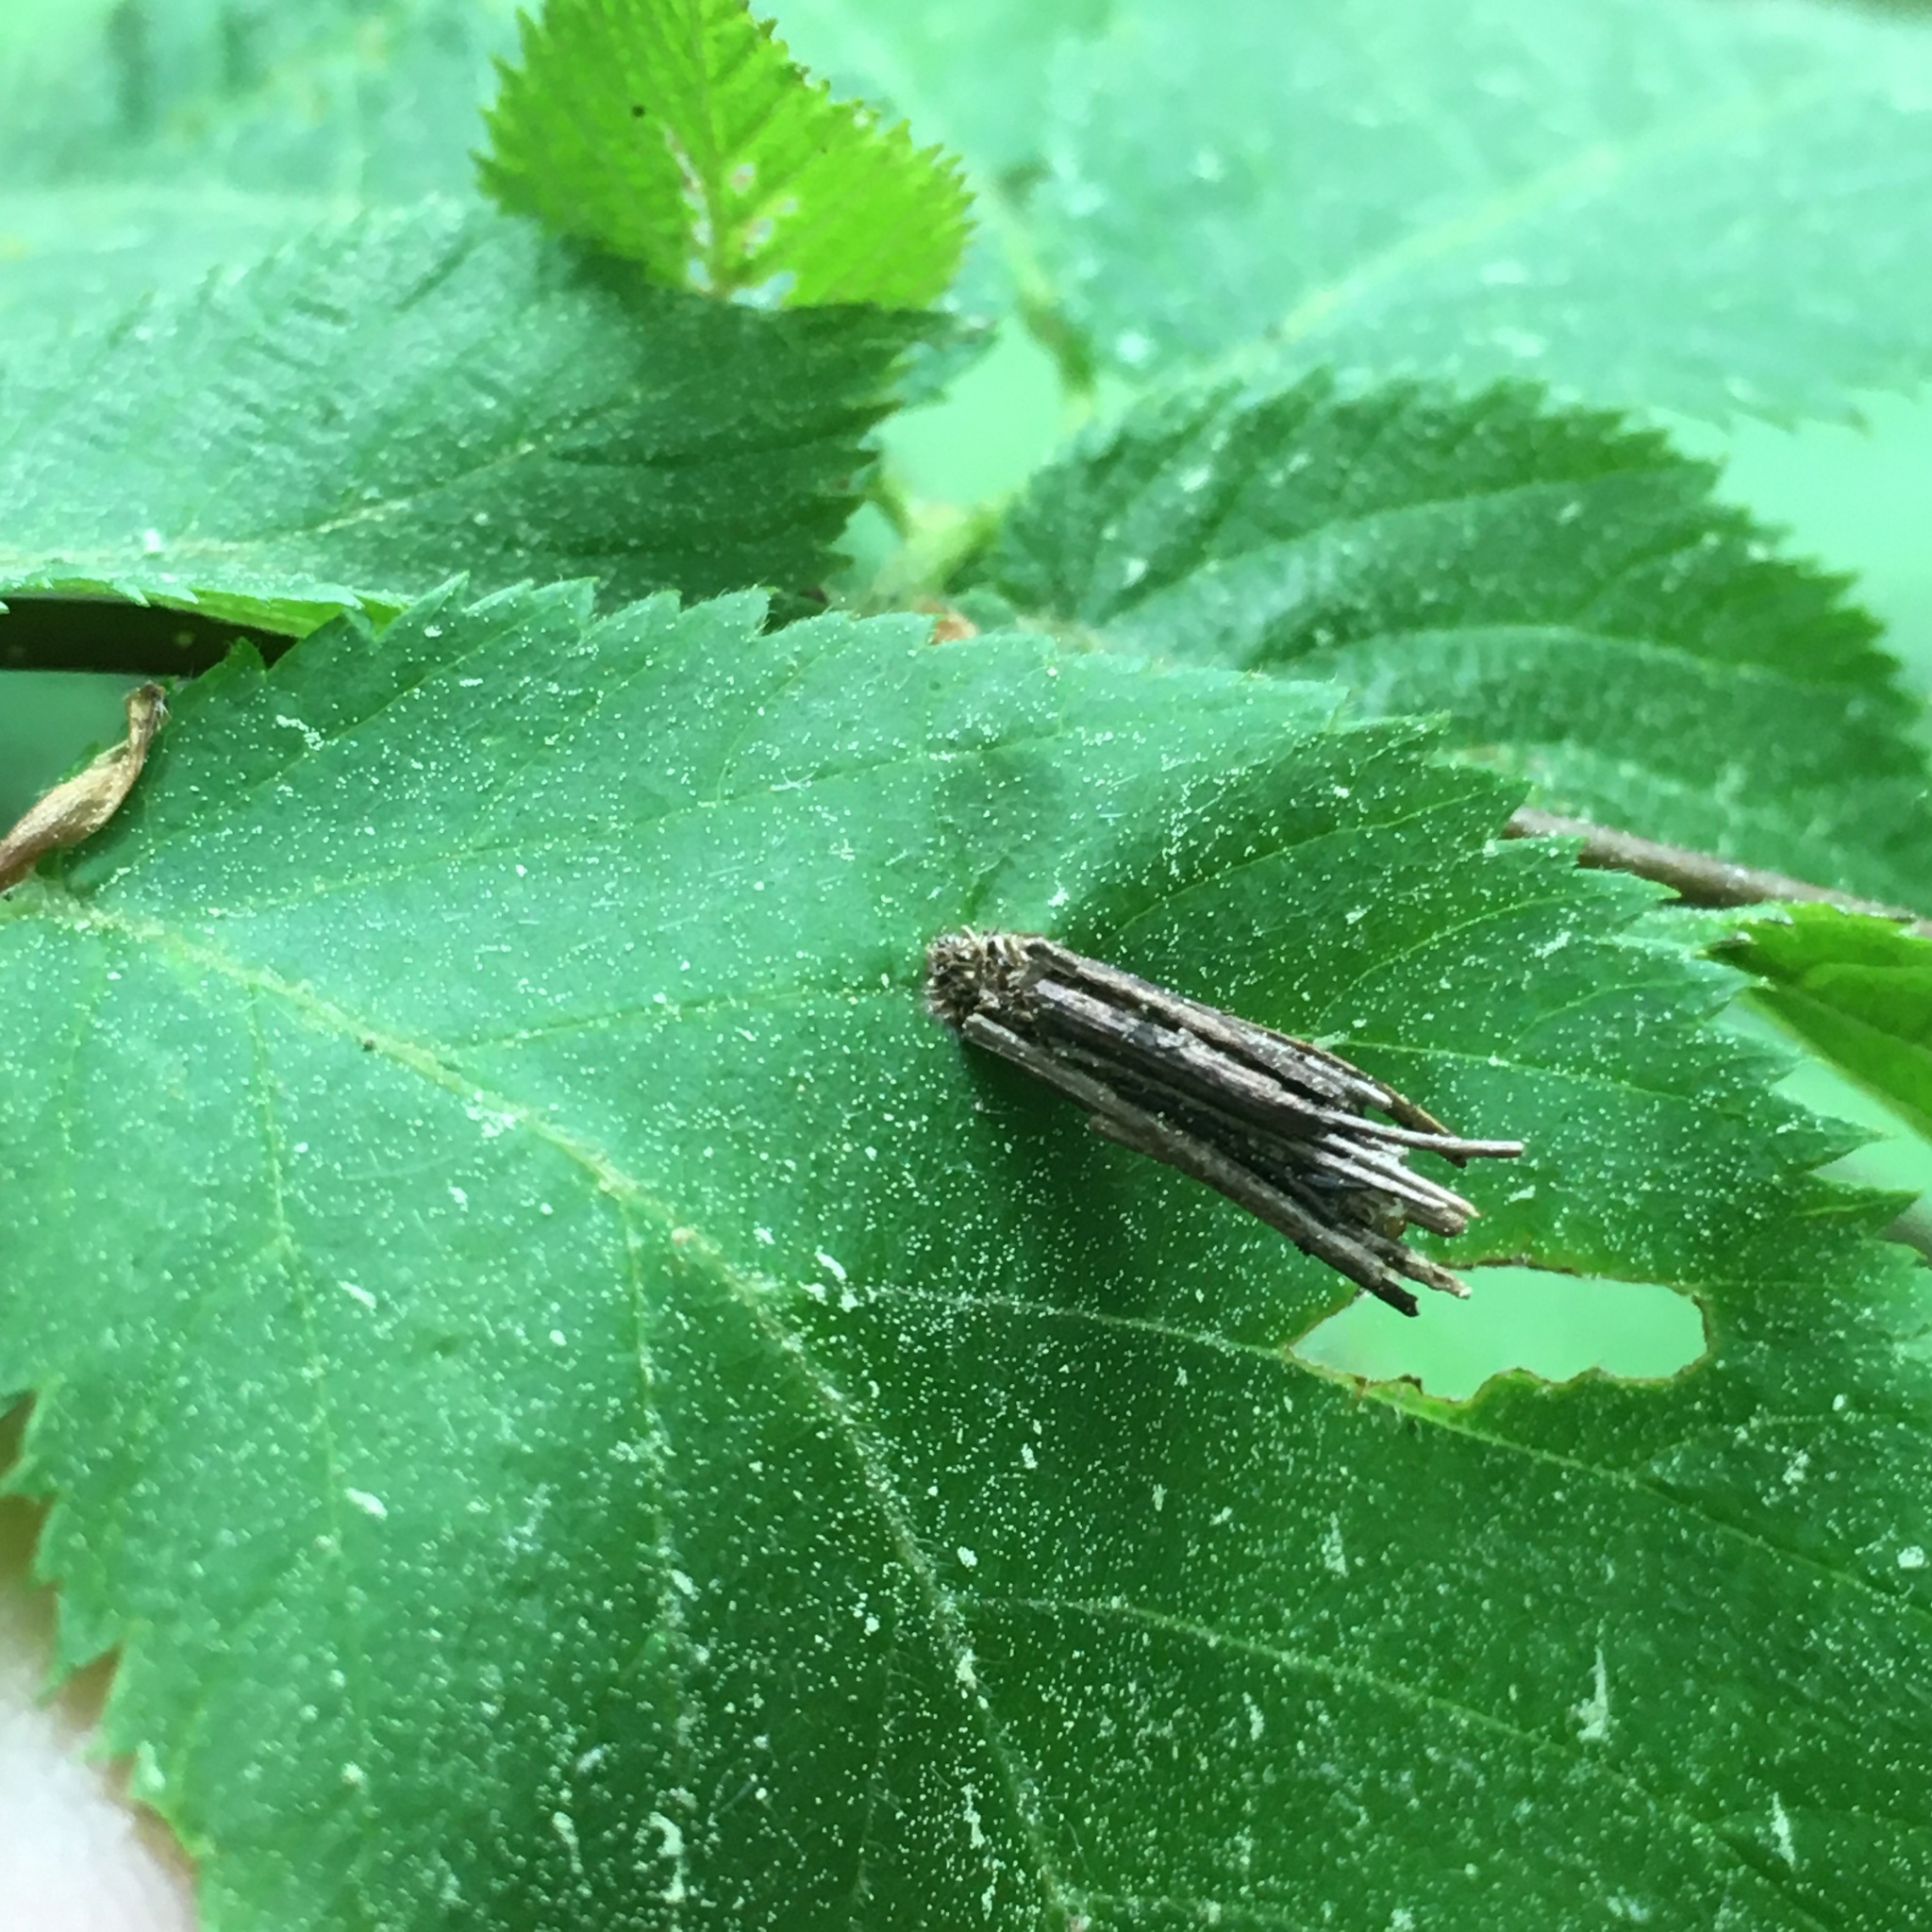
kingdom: Animalia
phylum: Arthropoda
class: Insecta
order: Lepidoptera
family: Psychidae
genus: Psyche
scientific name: Psyche casta
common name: Common sweep
